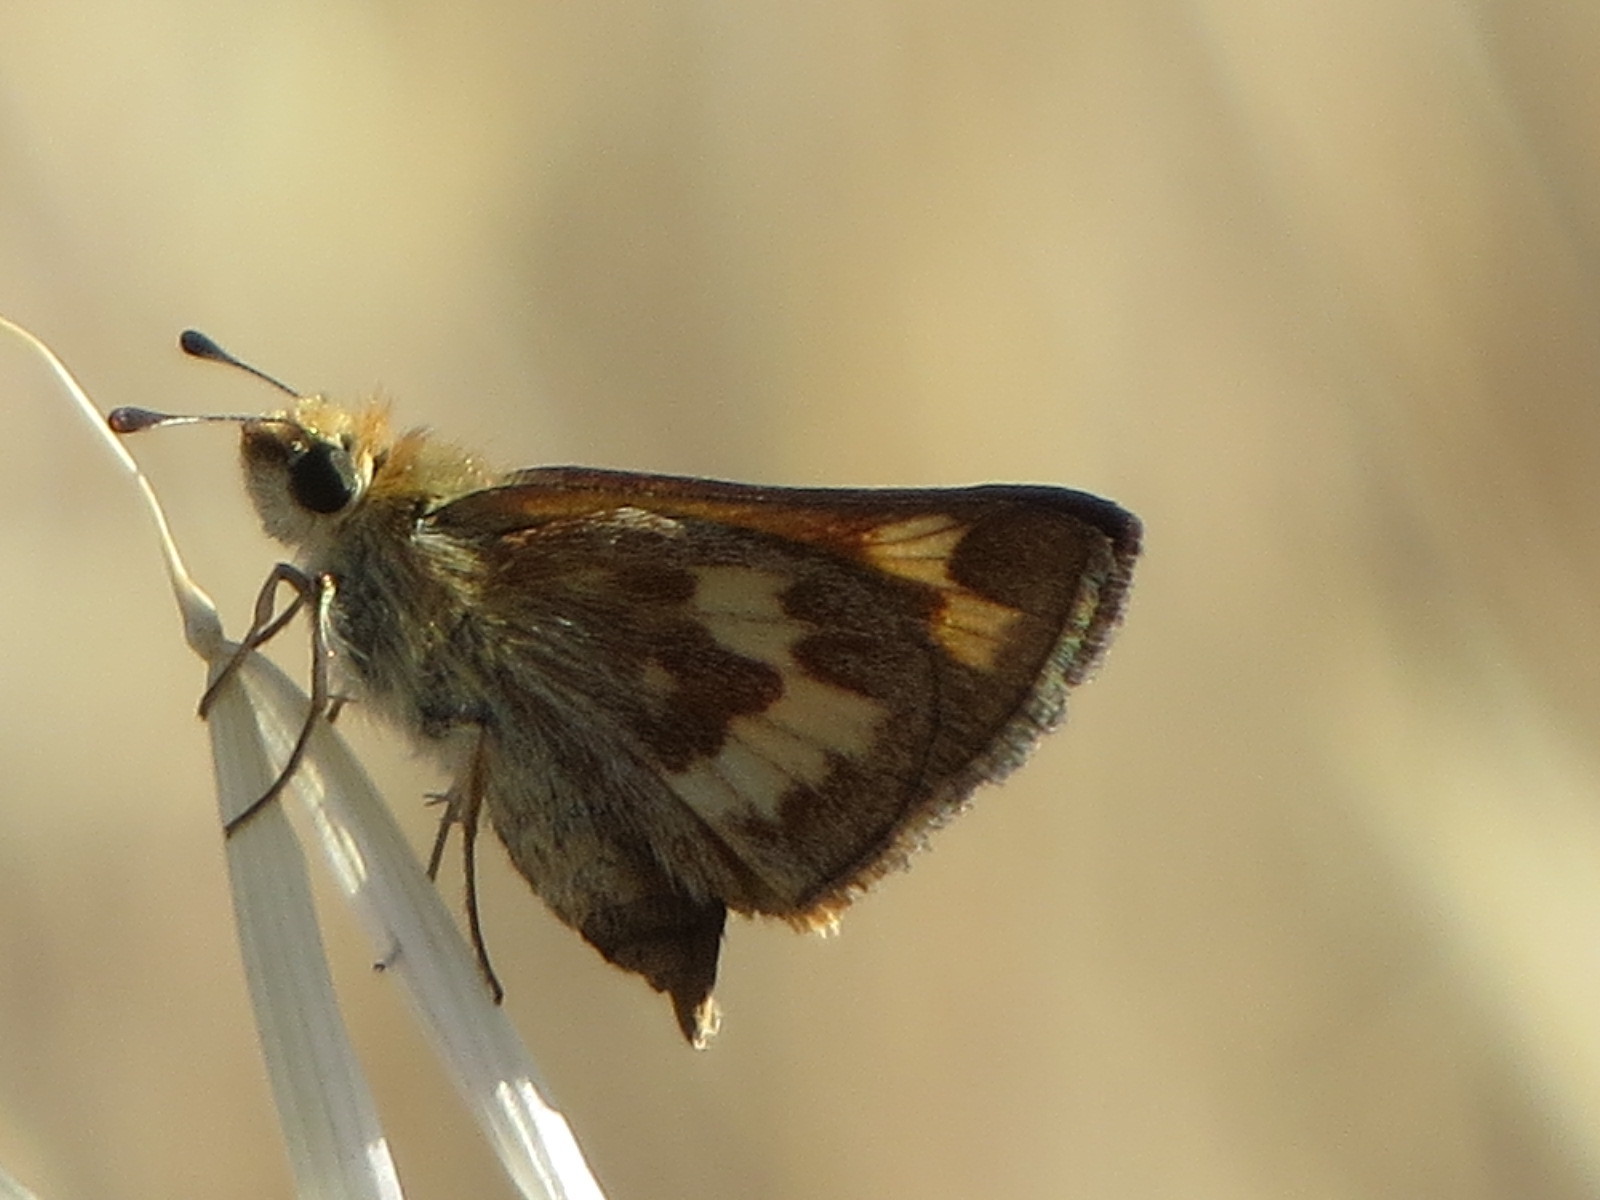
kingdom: Animalia
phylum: Arthropoda
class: Insecta
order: Lepidoptera
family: Hesperiidae
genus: Ochlodes
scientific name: Ochlodes sylvanoides
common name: Woodland skipper
